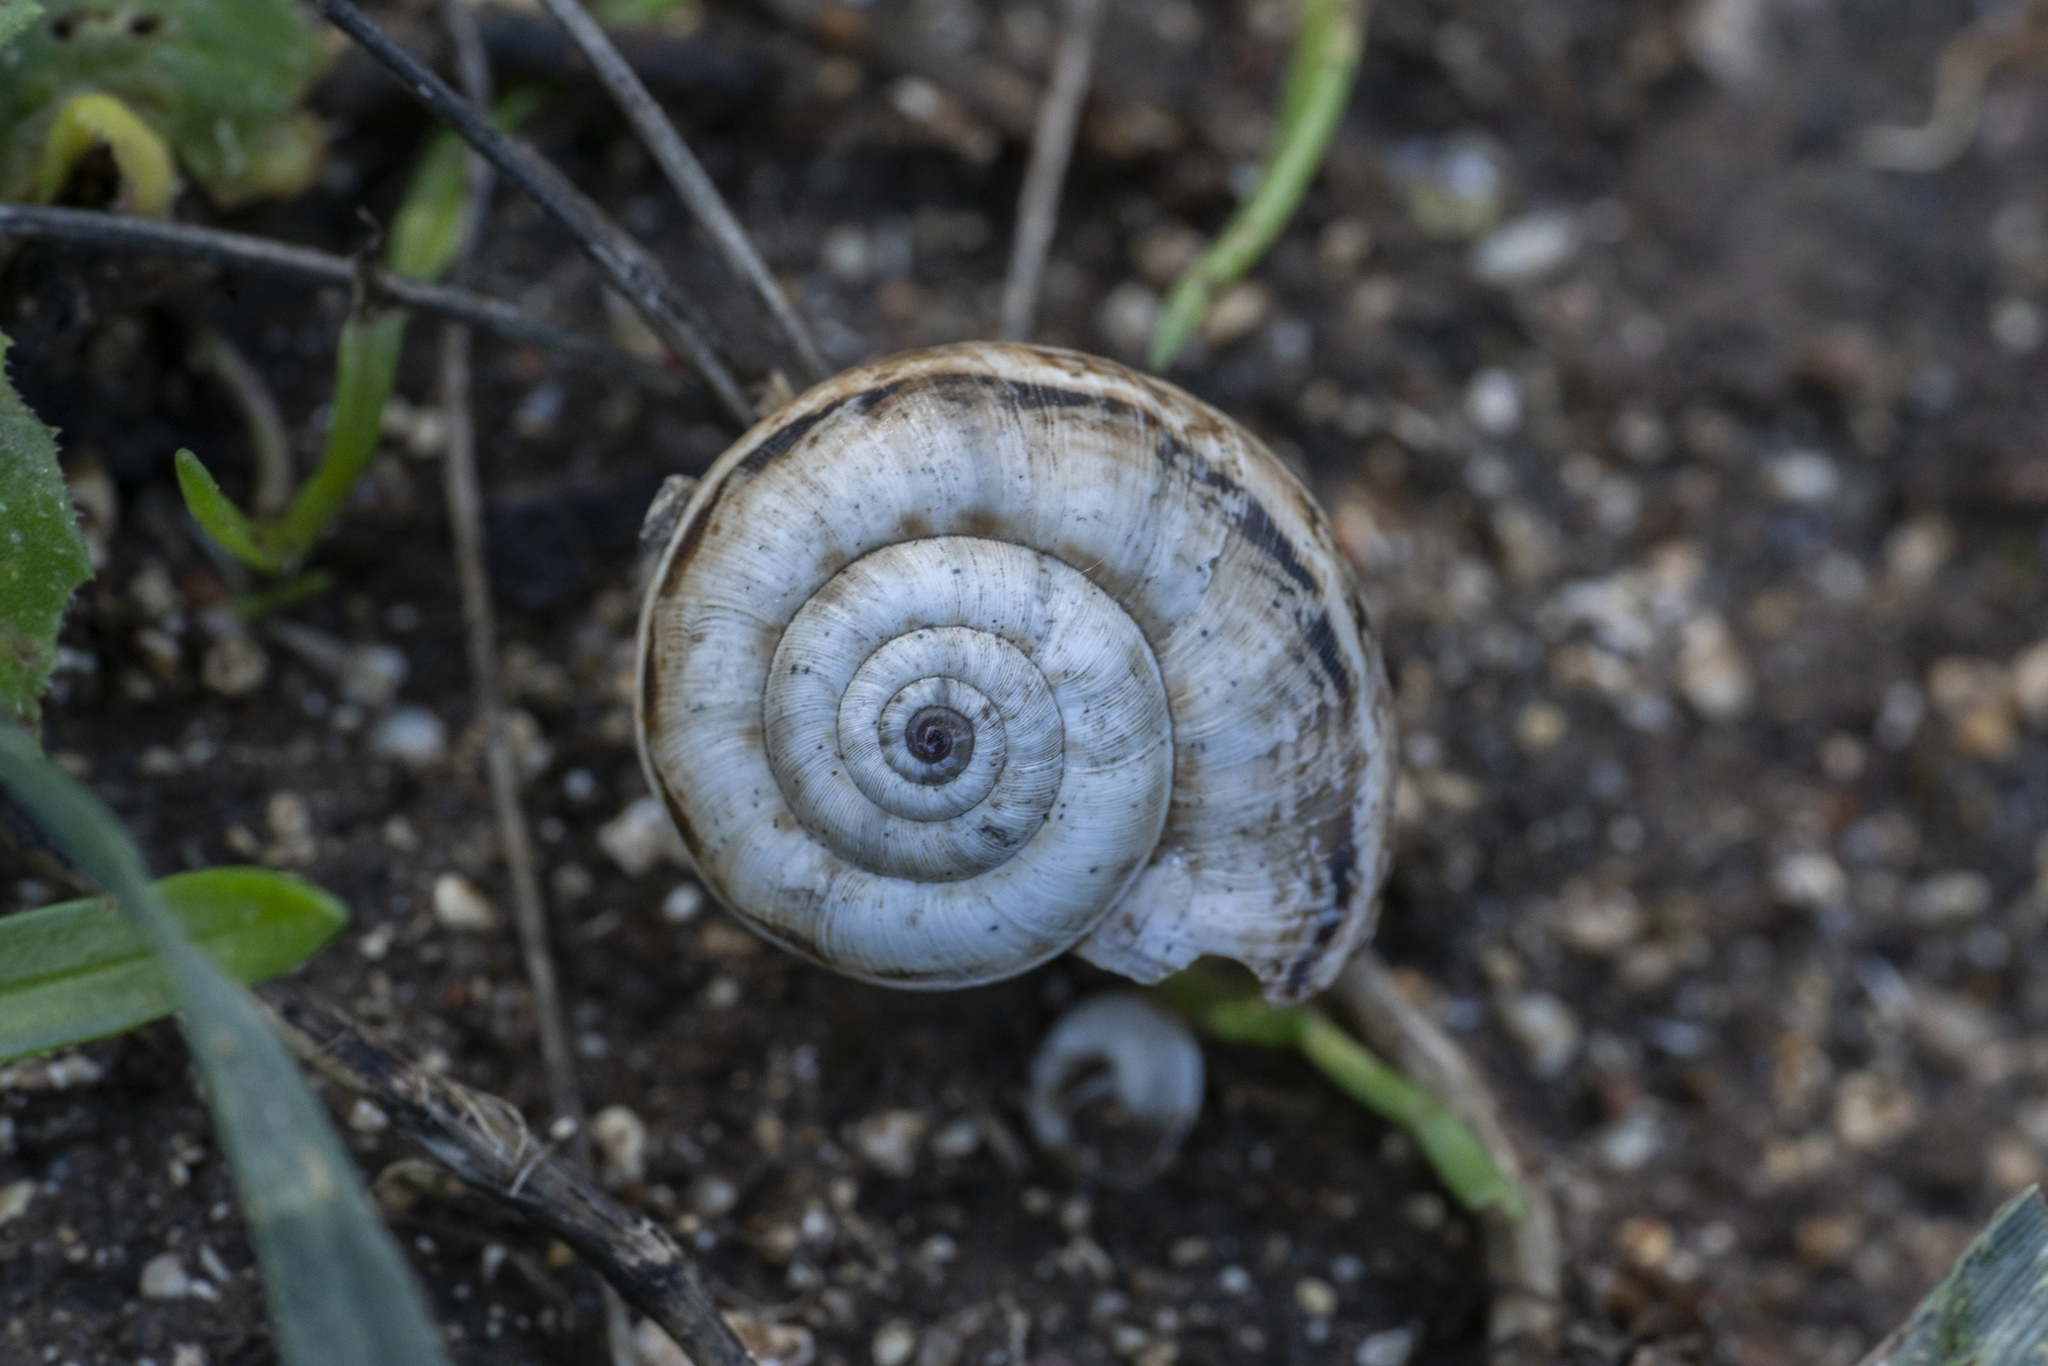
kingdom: Animalia
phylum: Mollusca
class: Gastropoda
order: Stylommatophora
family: Geomitridae
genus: Xeropicta
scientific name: Xeropicta krynickii
